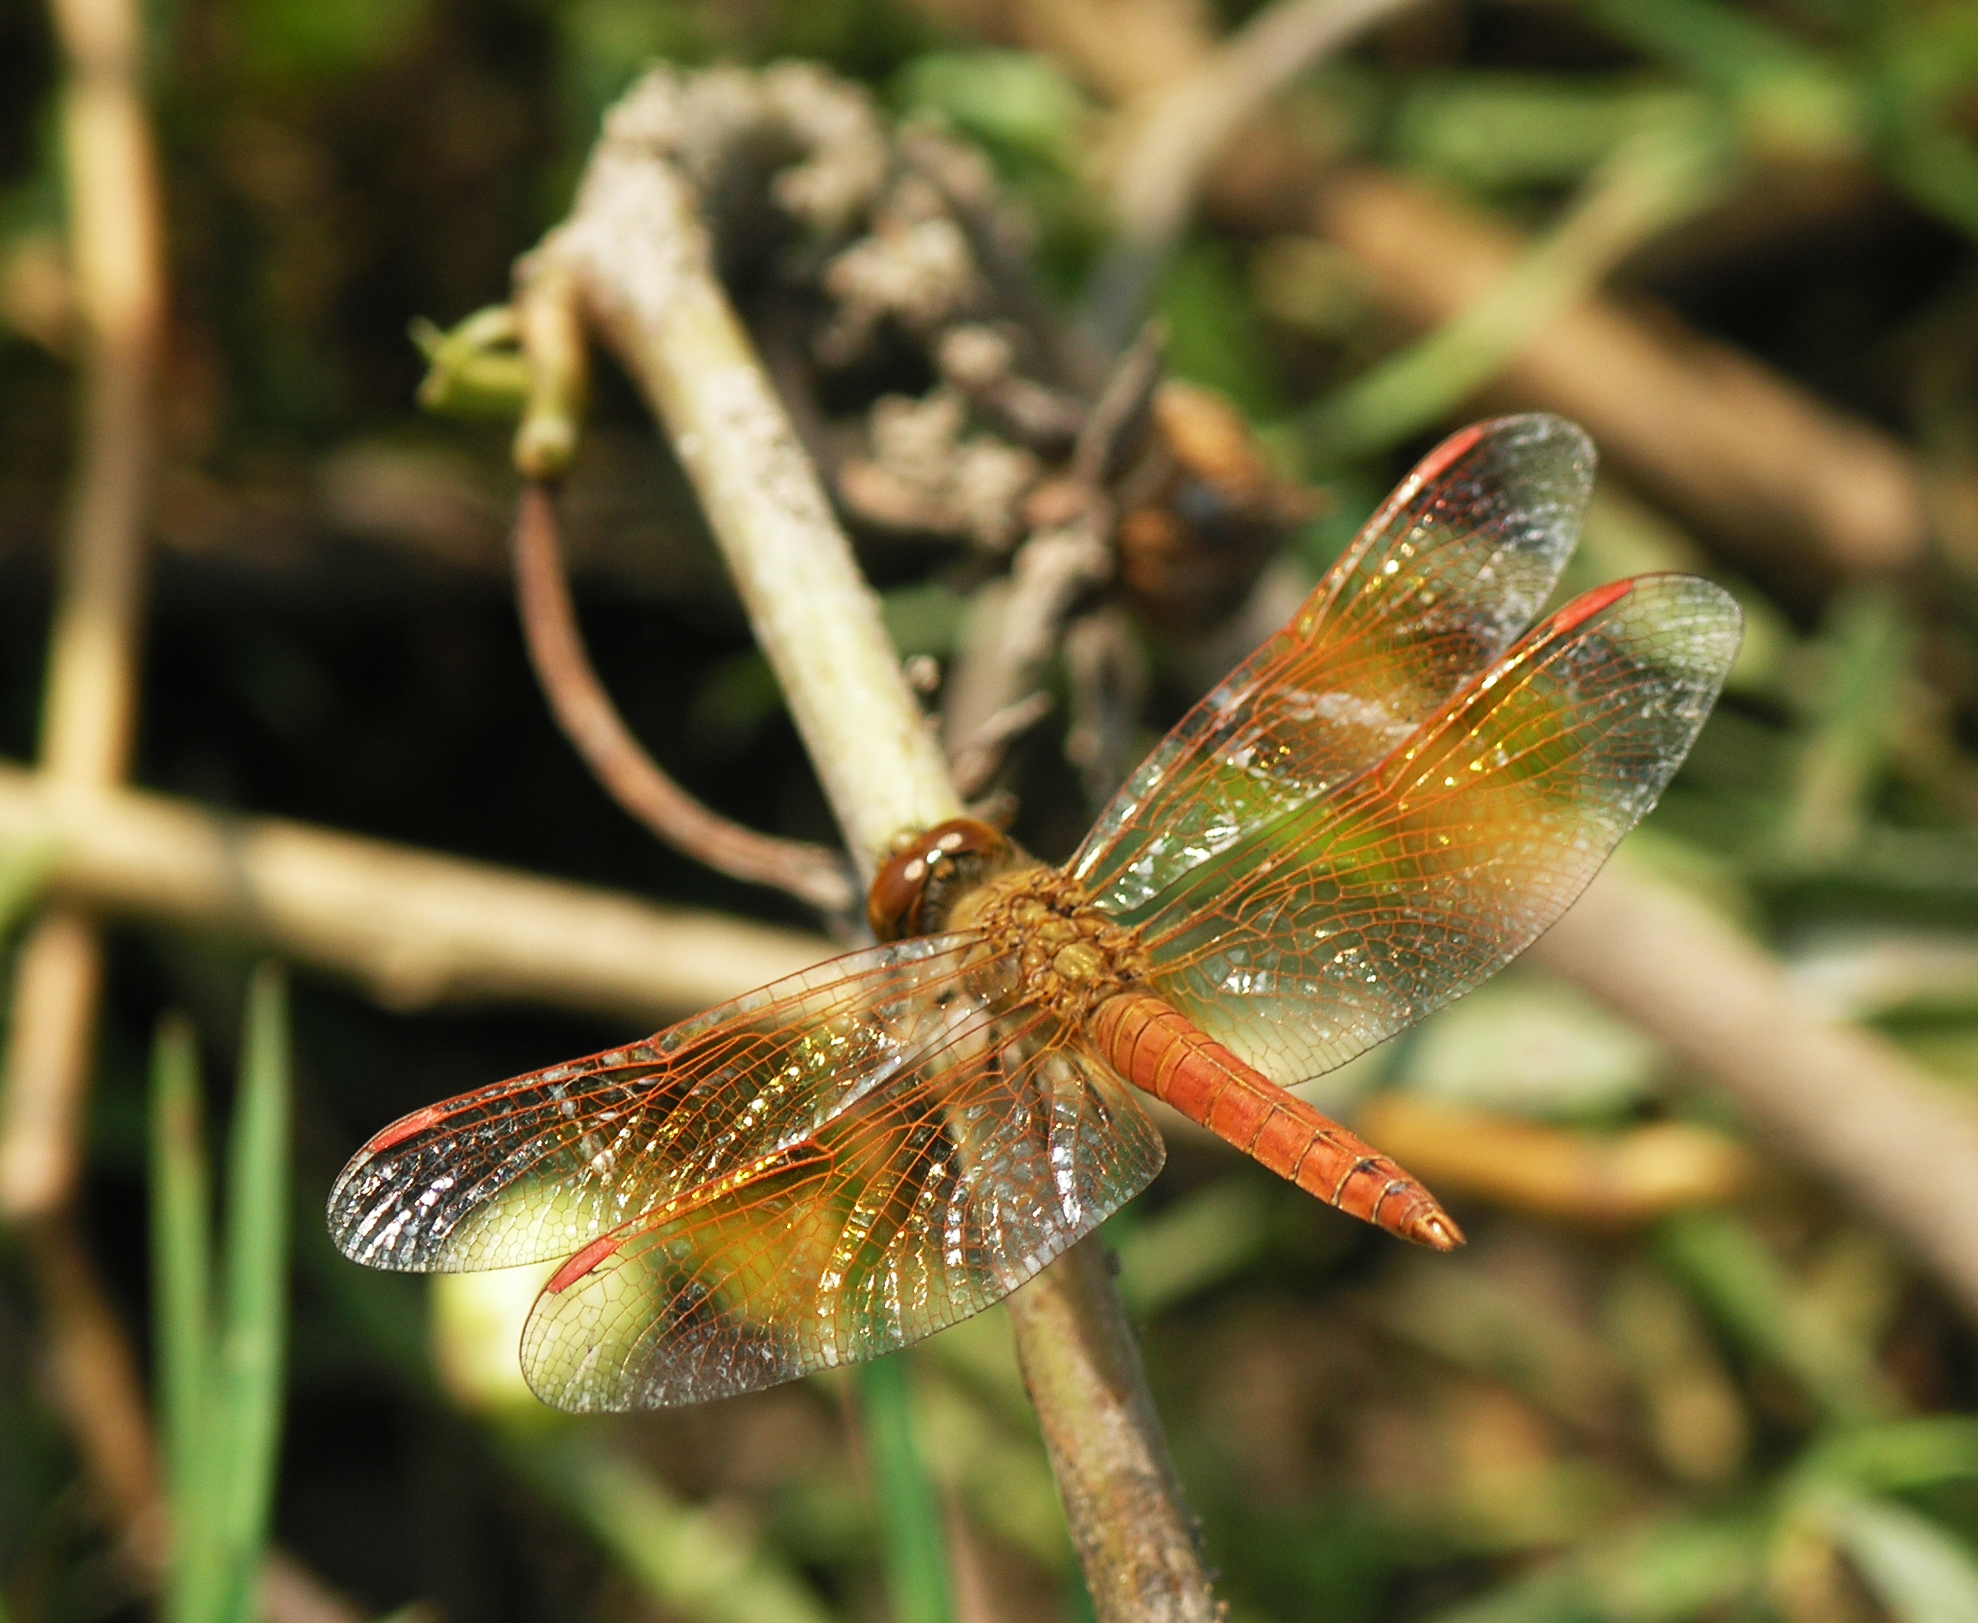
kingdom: Animalia
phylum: Arthropoda
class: Insecta
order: Odonata
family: Libellulidae
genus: Brachythemis
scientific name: Brachythemis contaminata
